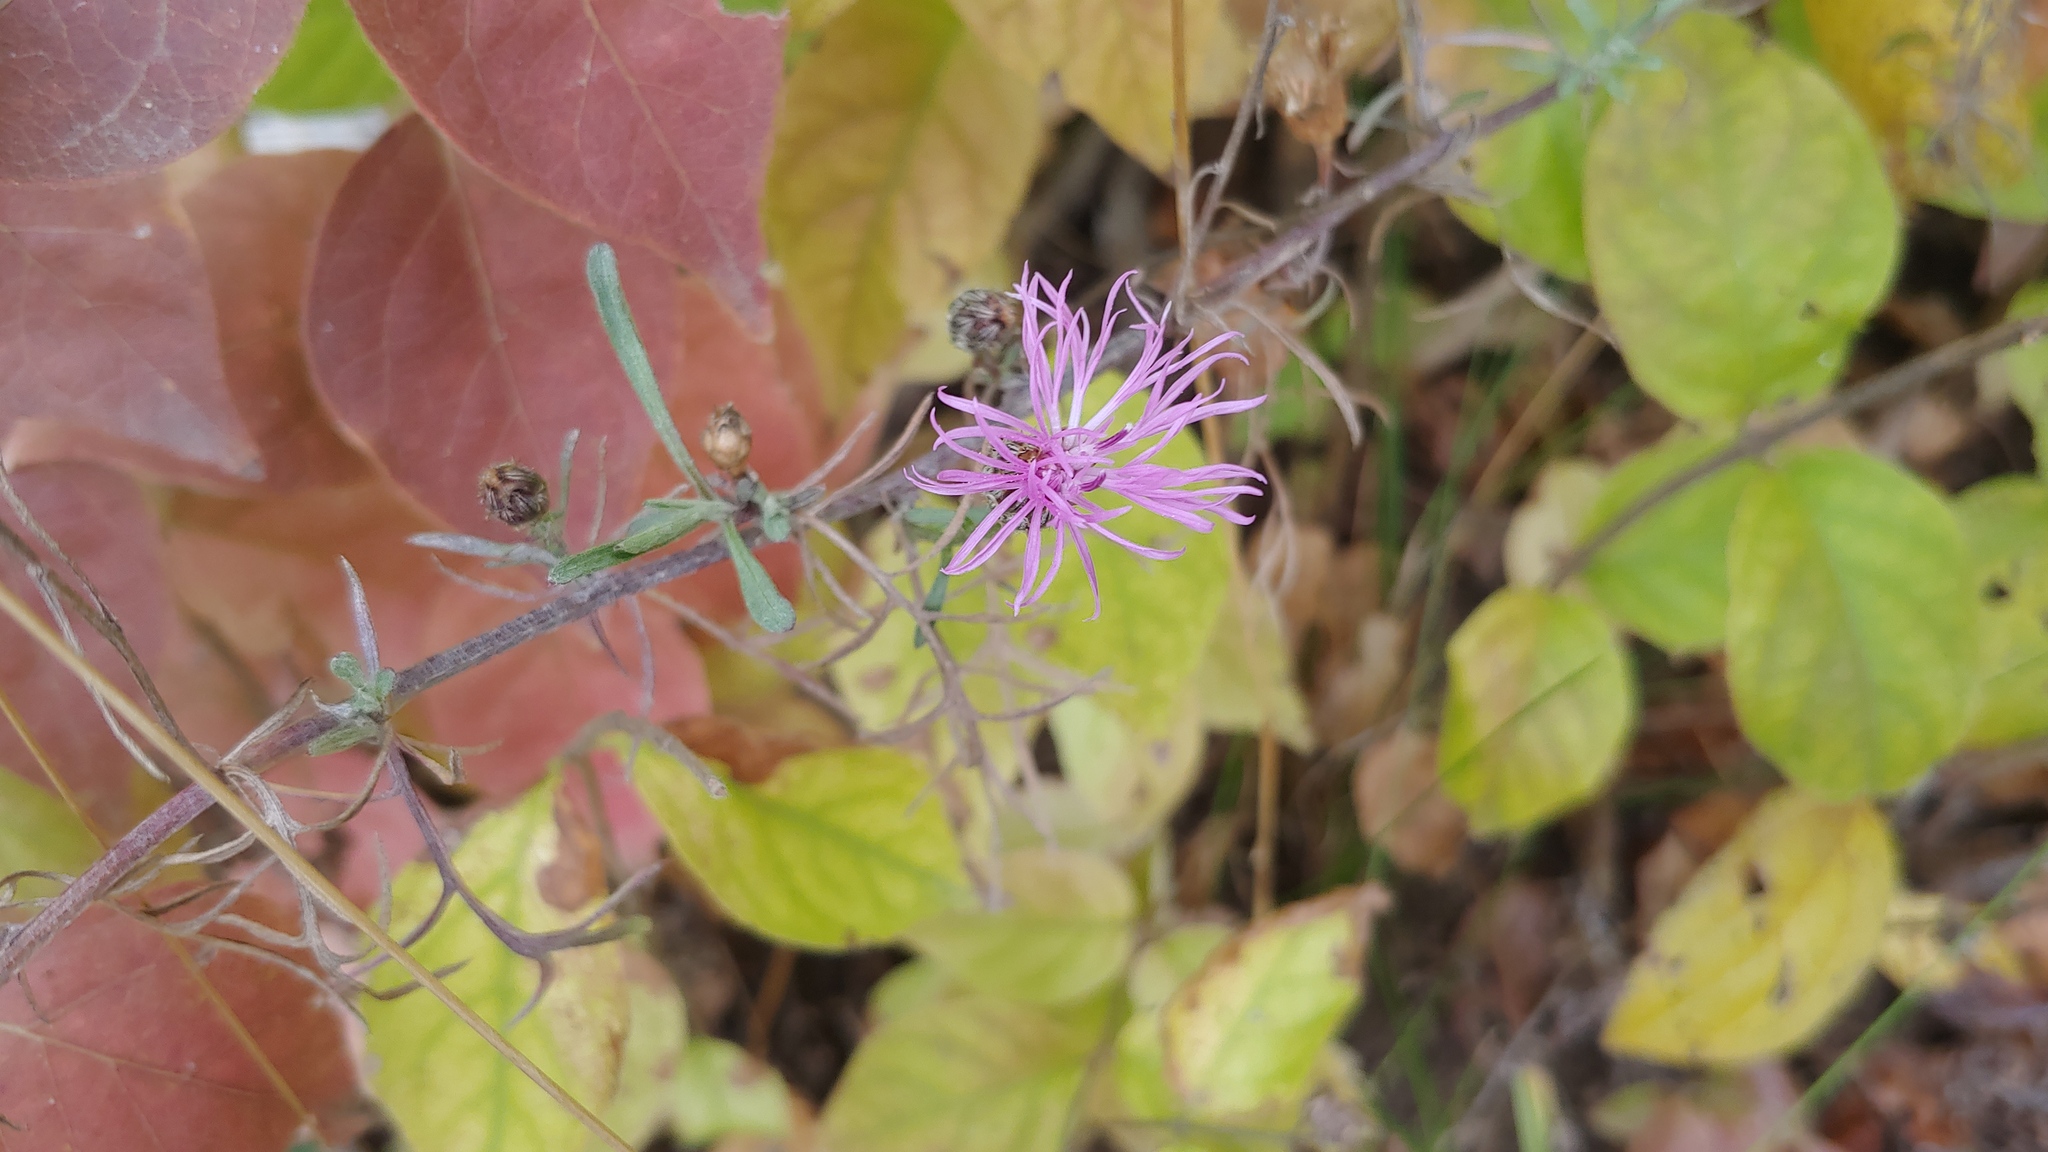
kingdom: Plantae
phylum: Tracheophyta
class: Magnoliopsida
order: Asterales
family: Asteraceae
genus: Centaurea
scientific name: Centaurea stoebe
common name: Spotted knapweed
